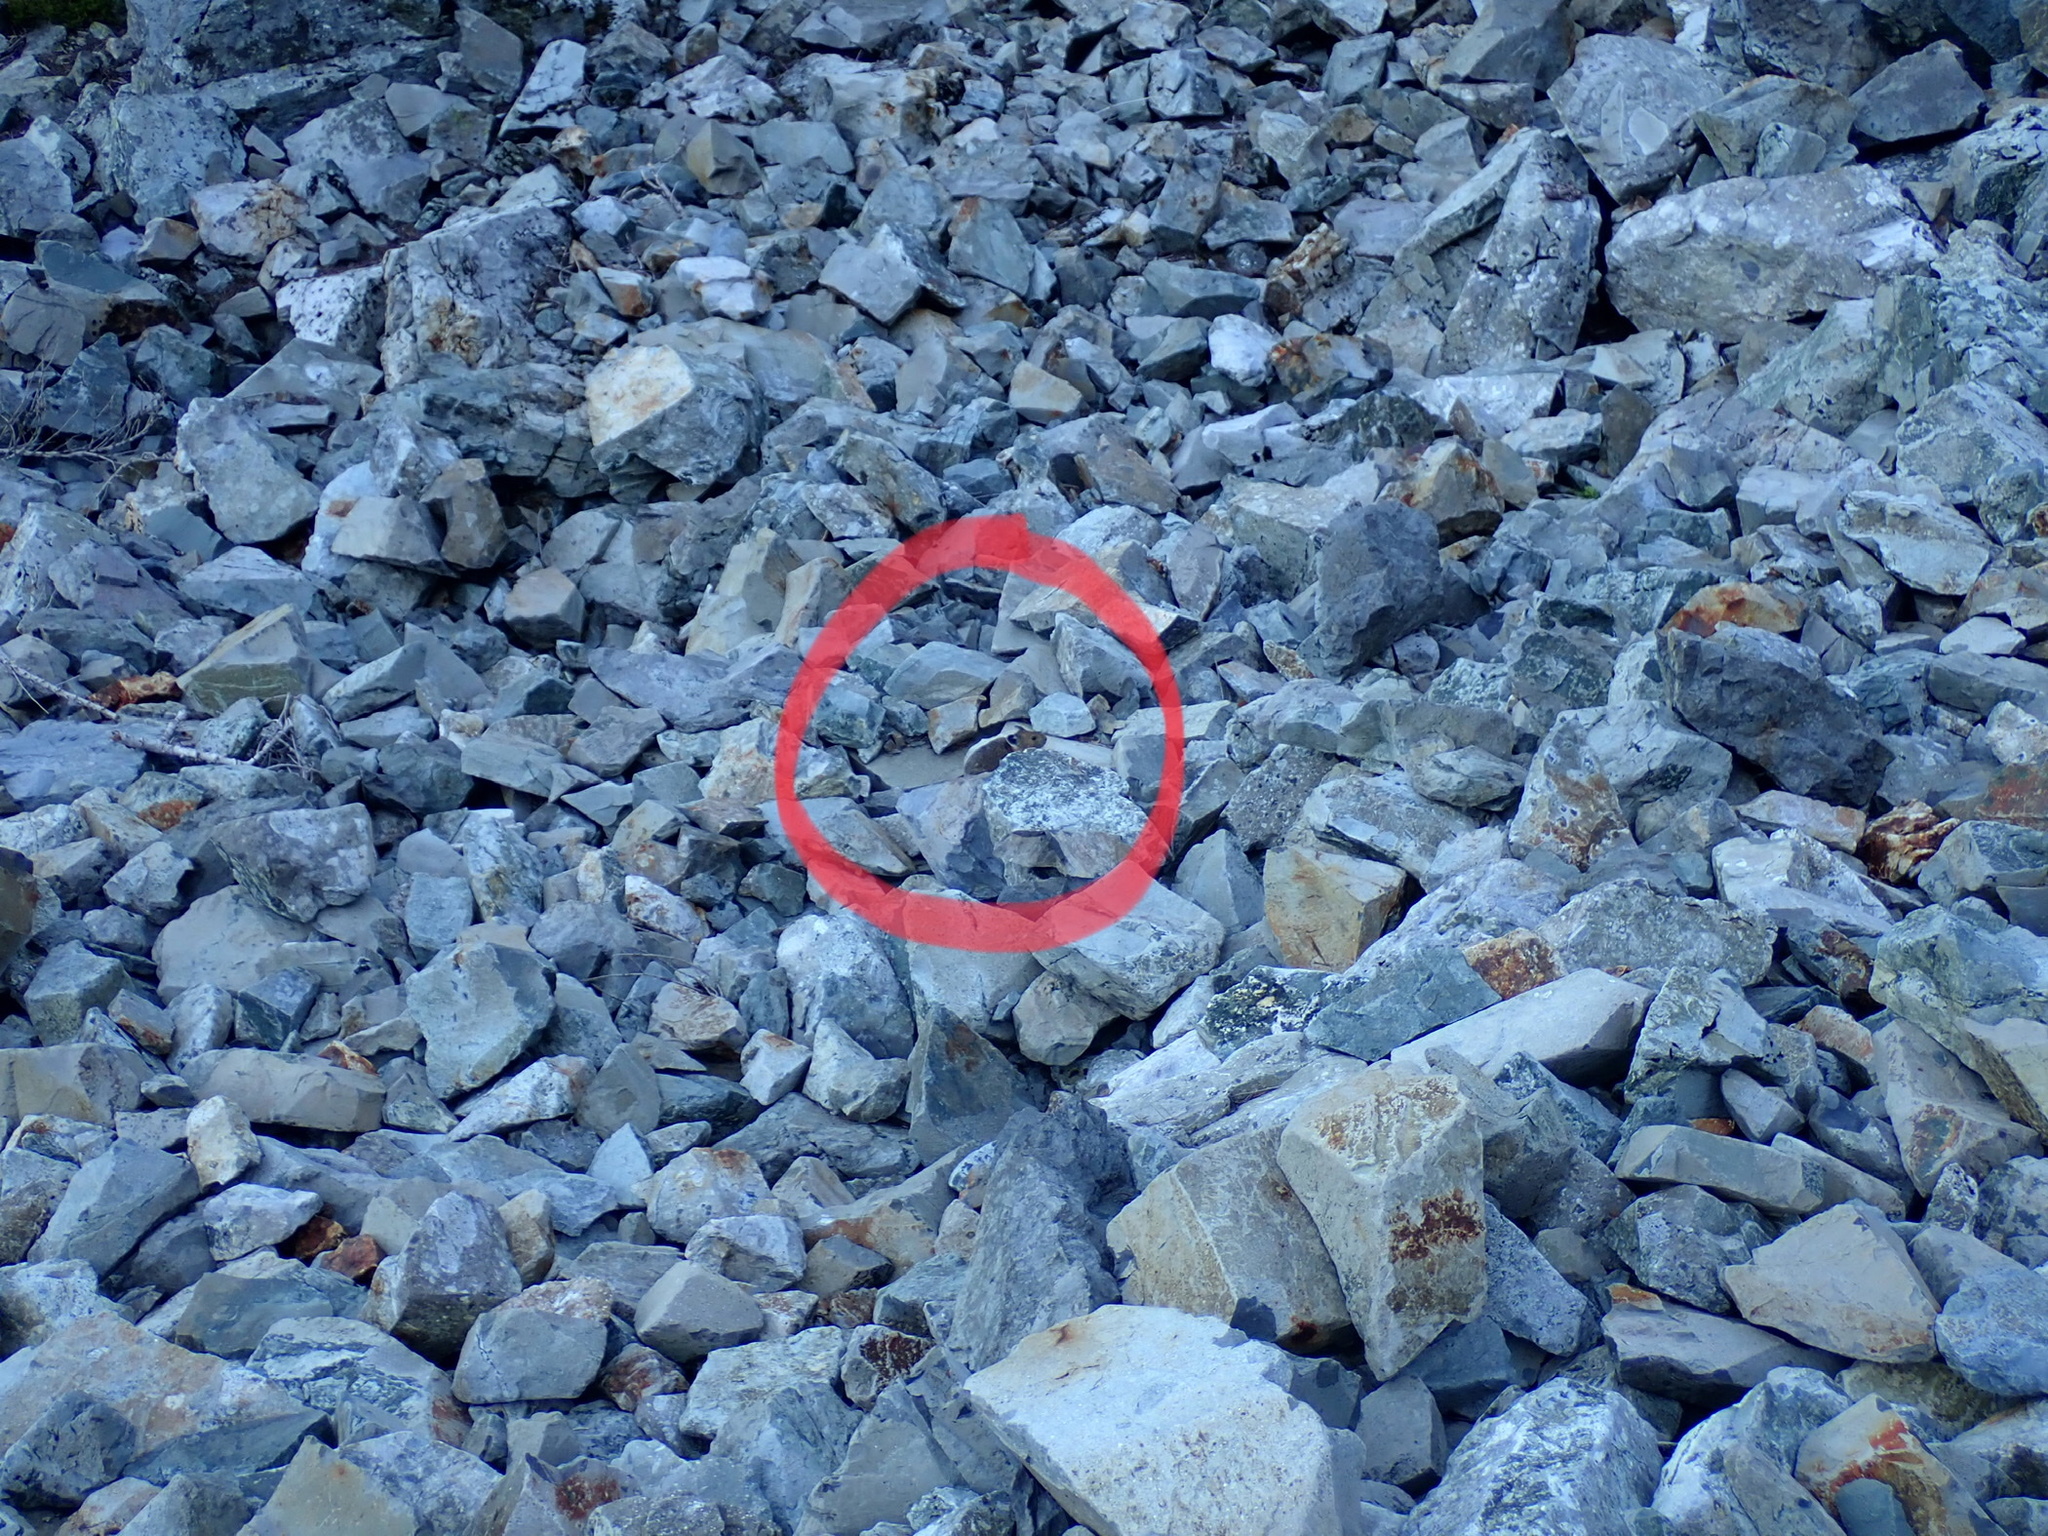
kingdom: Animalia
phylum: Chordata
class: Mammalia
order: Lagomorpha
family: Ochotonidae
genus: Ochotona
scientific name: Ochotona princeps
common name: American pika
